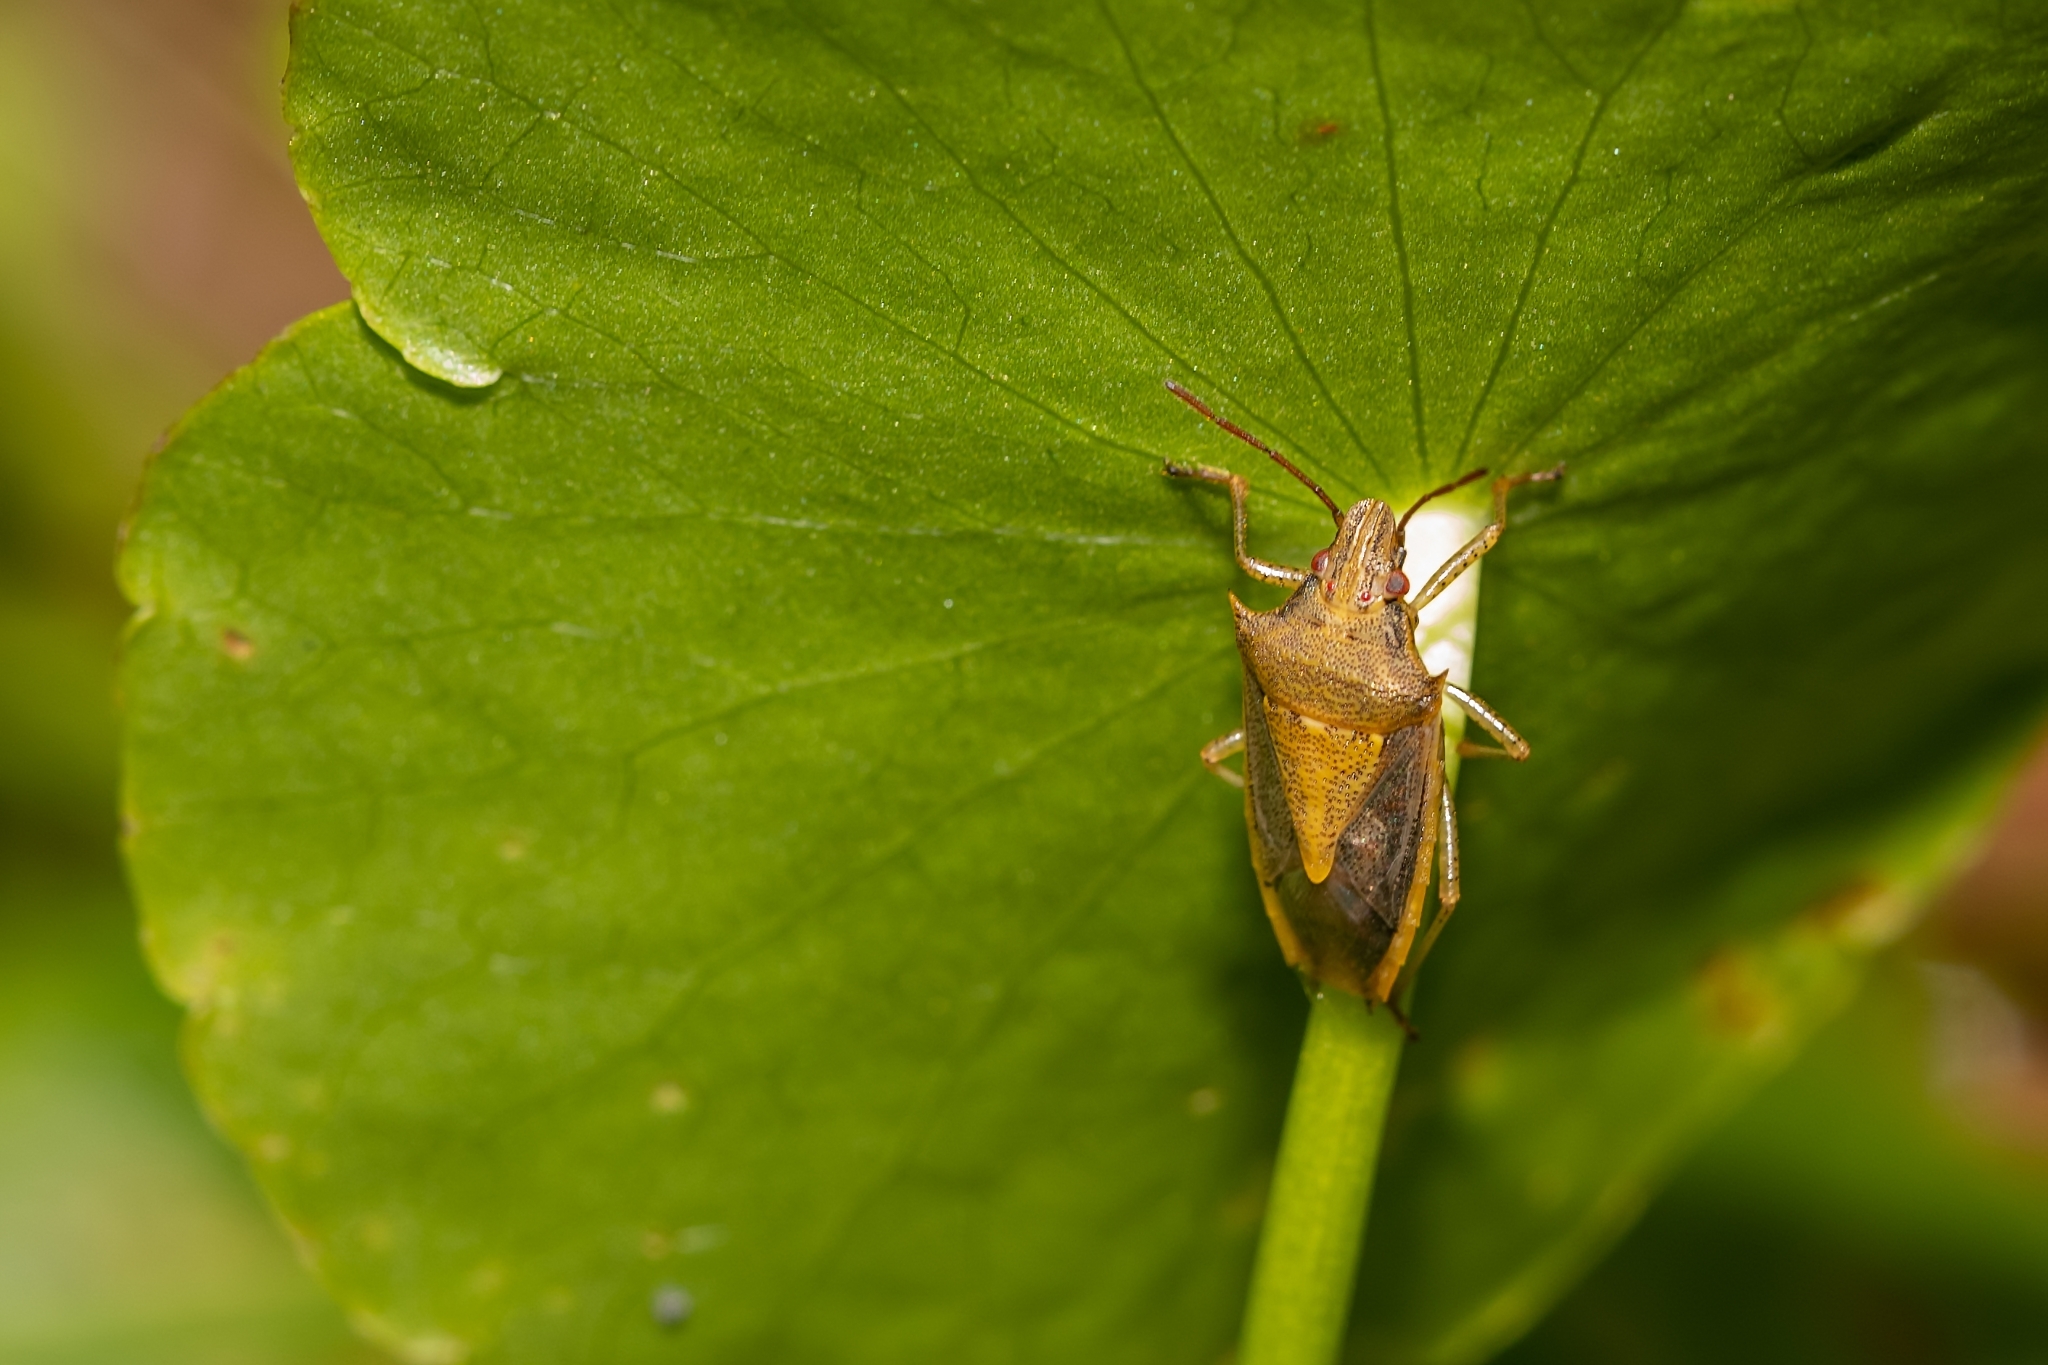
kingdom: Animalia
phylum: Arthropoda
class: Insecta
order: Hemiptera
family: Pentatomidae
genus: Oebalus
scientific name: Oebalus pugnax
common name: Rice stink bug
